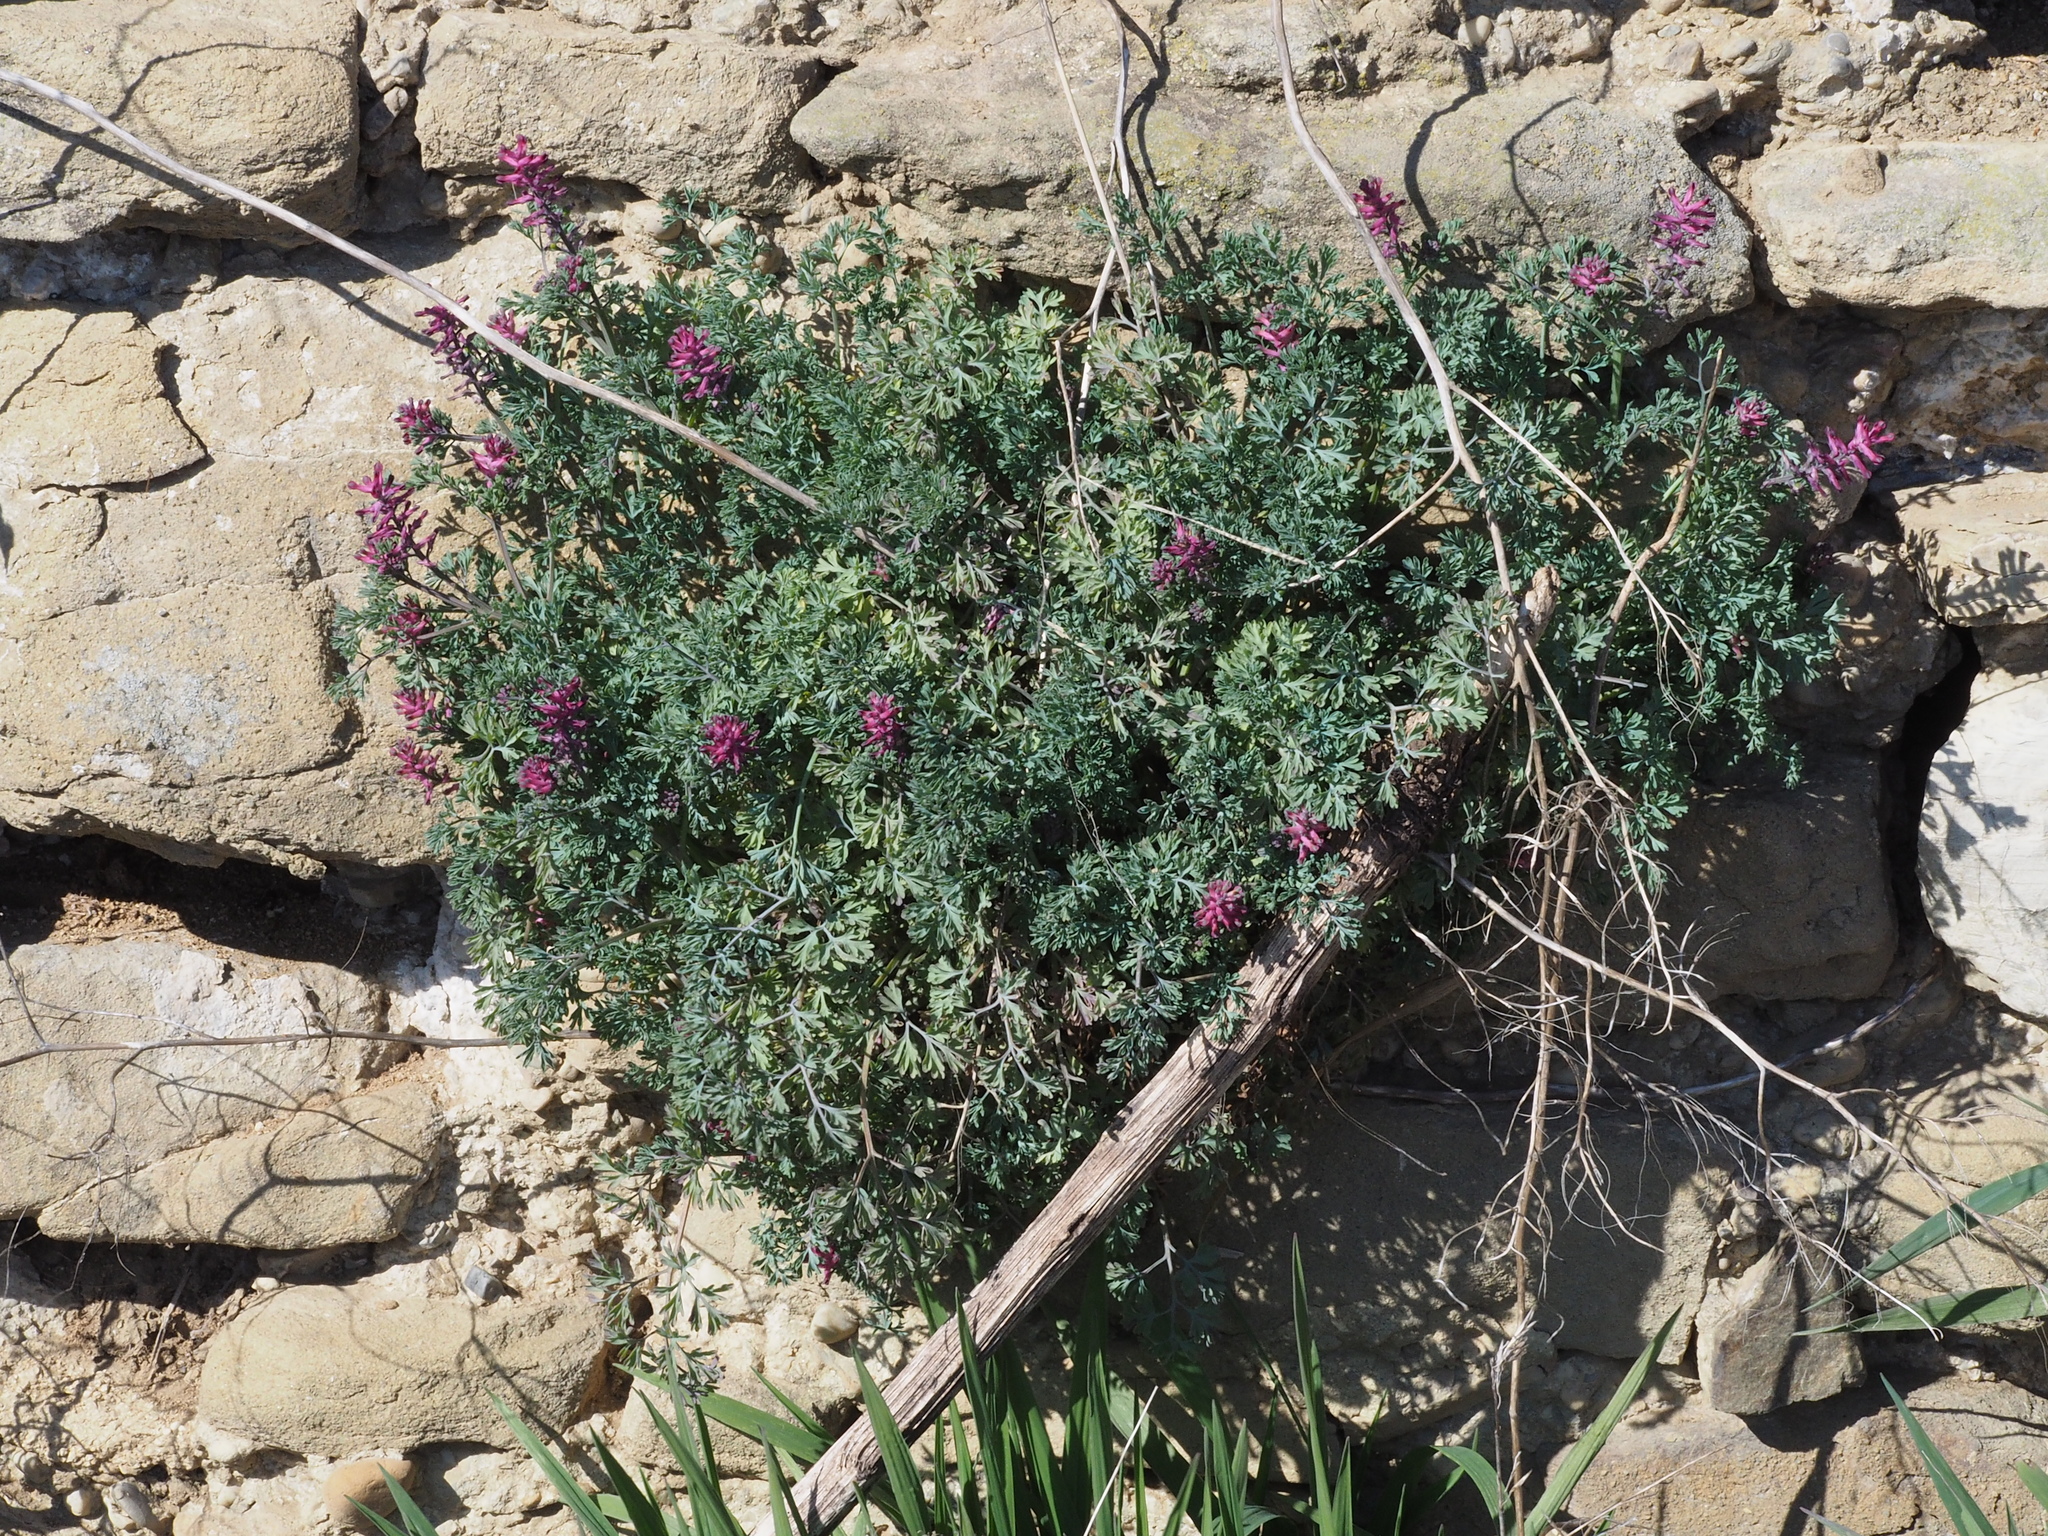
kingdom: Plantae
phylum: Tracheophyta
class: Magnoliopsida
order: Ranunculales
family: Papaveraceae
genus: Fumaria
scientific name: Fumaria officinalis
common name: Common fumitory
